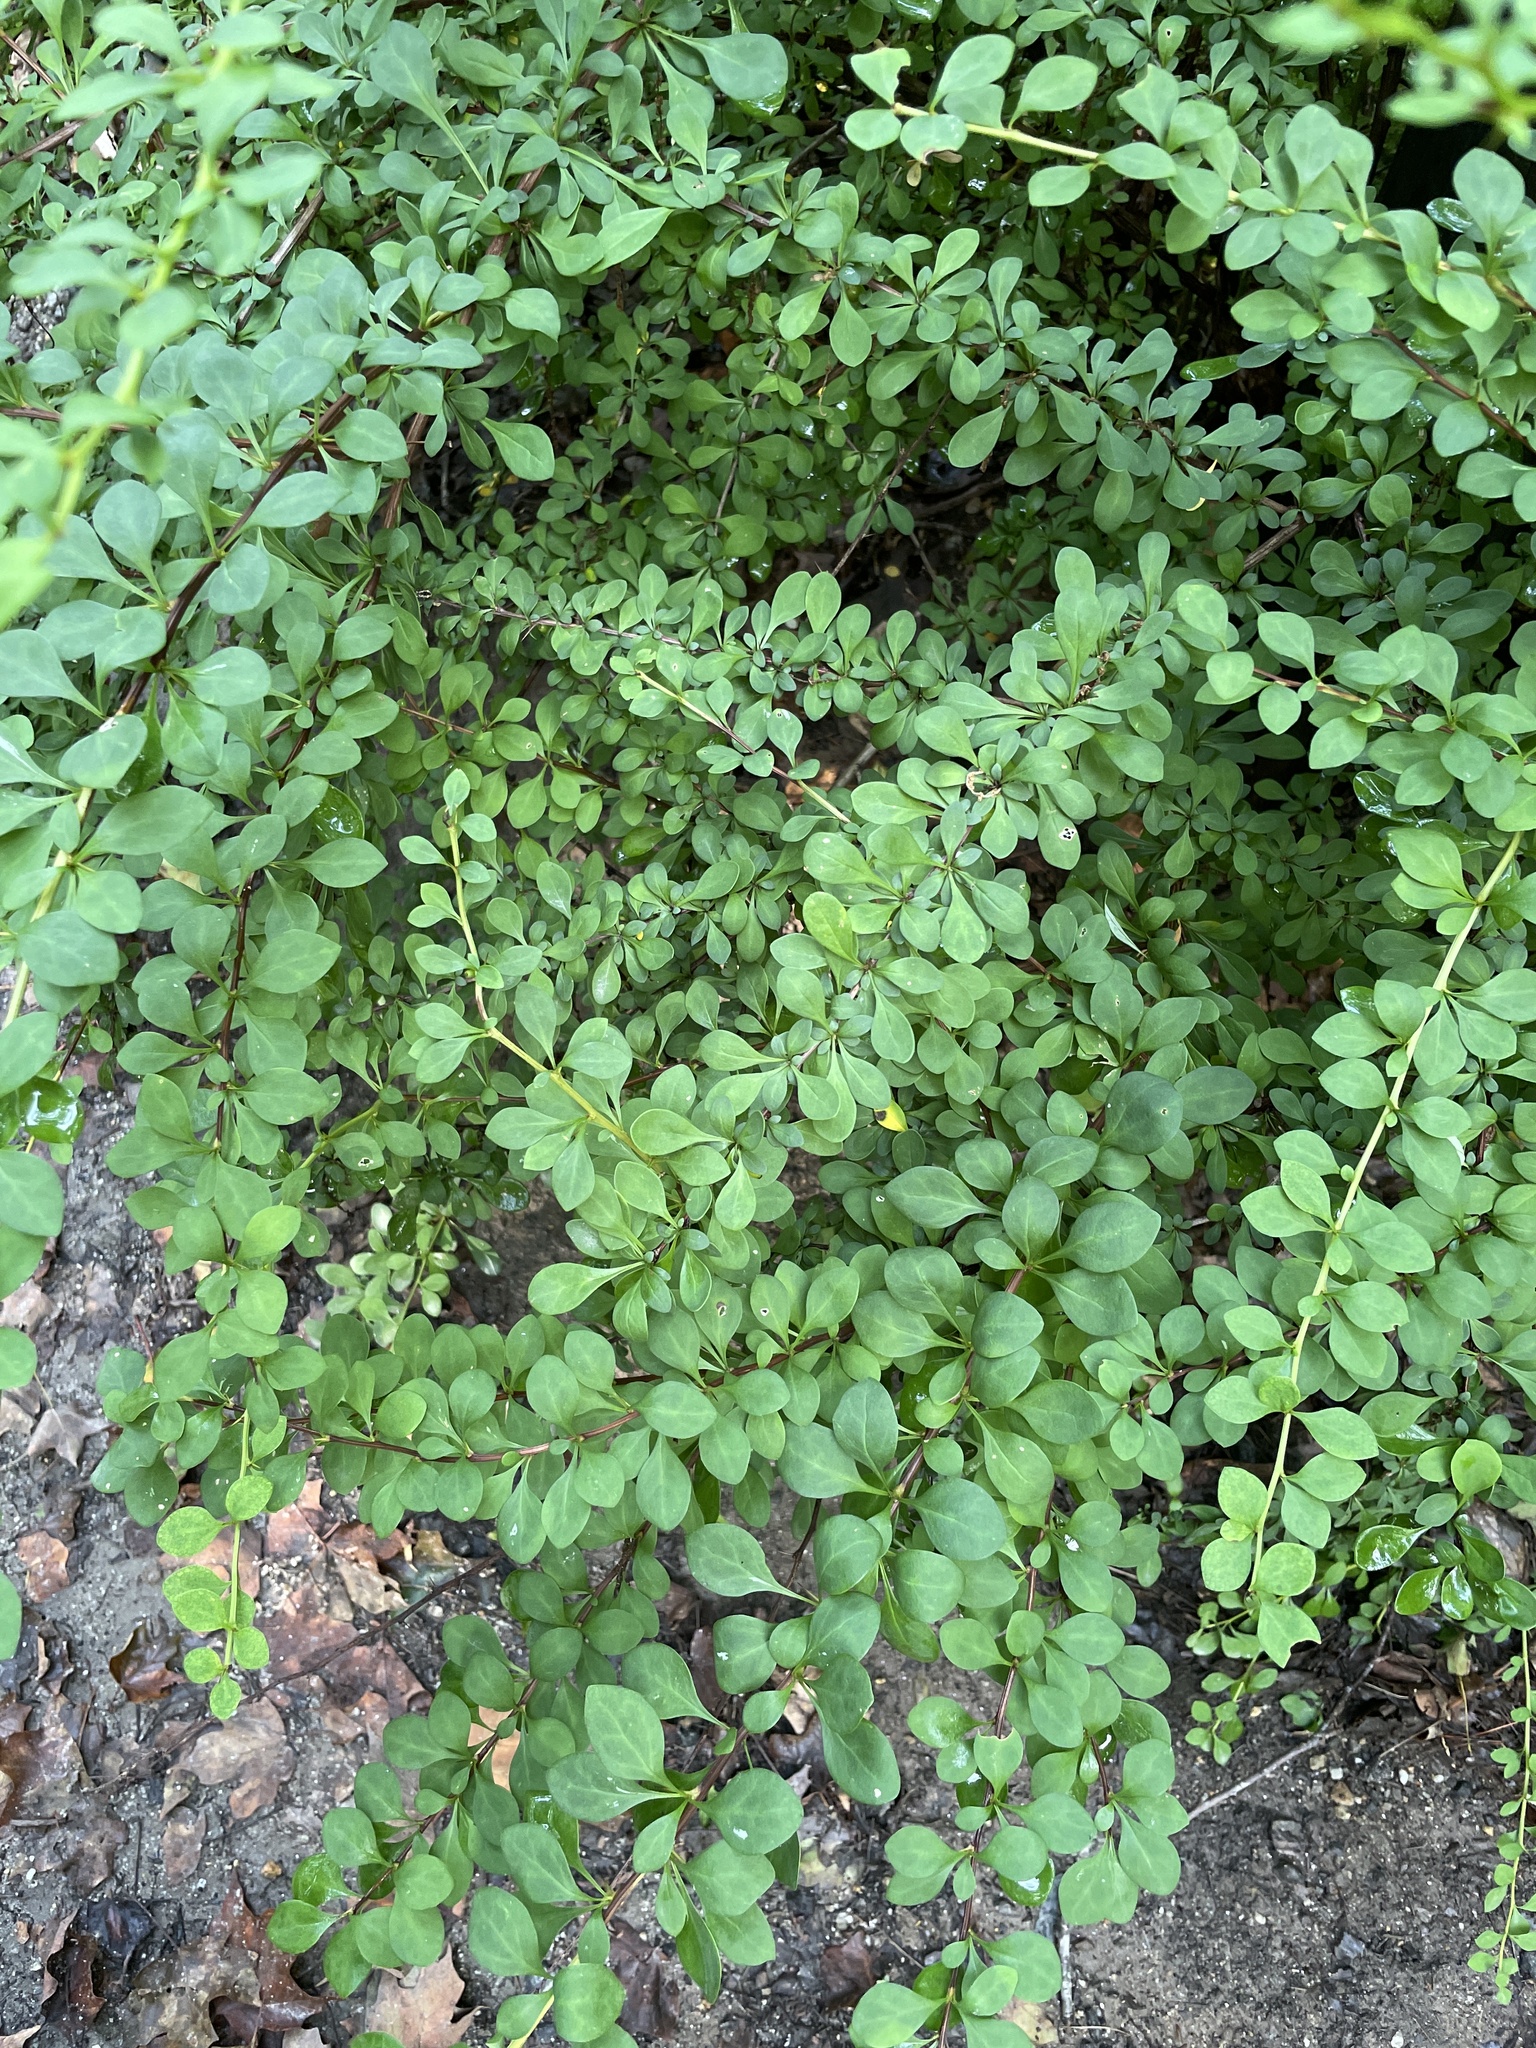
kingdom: Plantae
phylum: Tracheophyta
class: Magnoliopsida
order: Ranunculales
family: Berberidaceae
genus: Berberis
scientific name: Berberis thunbergii
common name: Japanese barberry
